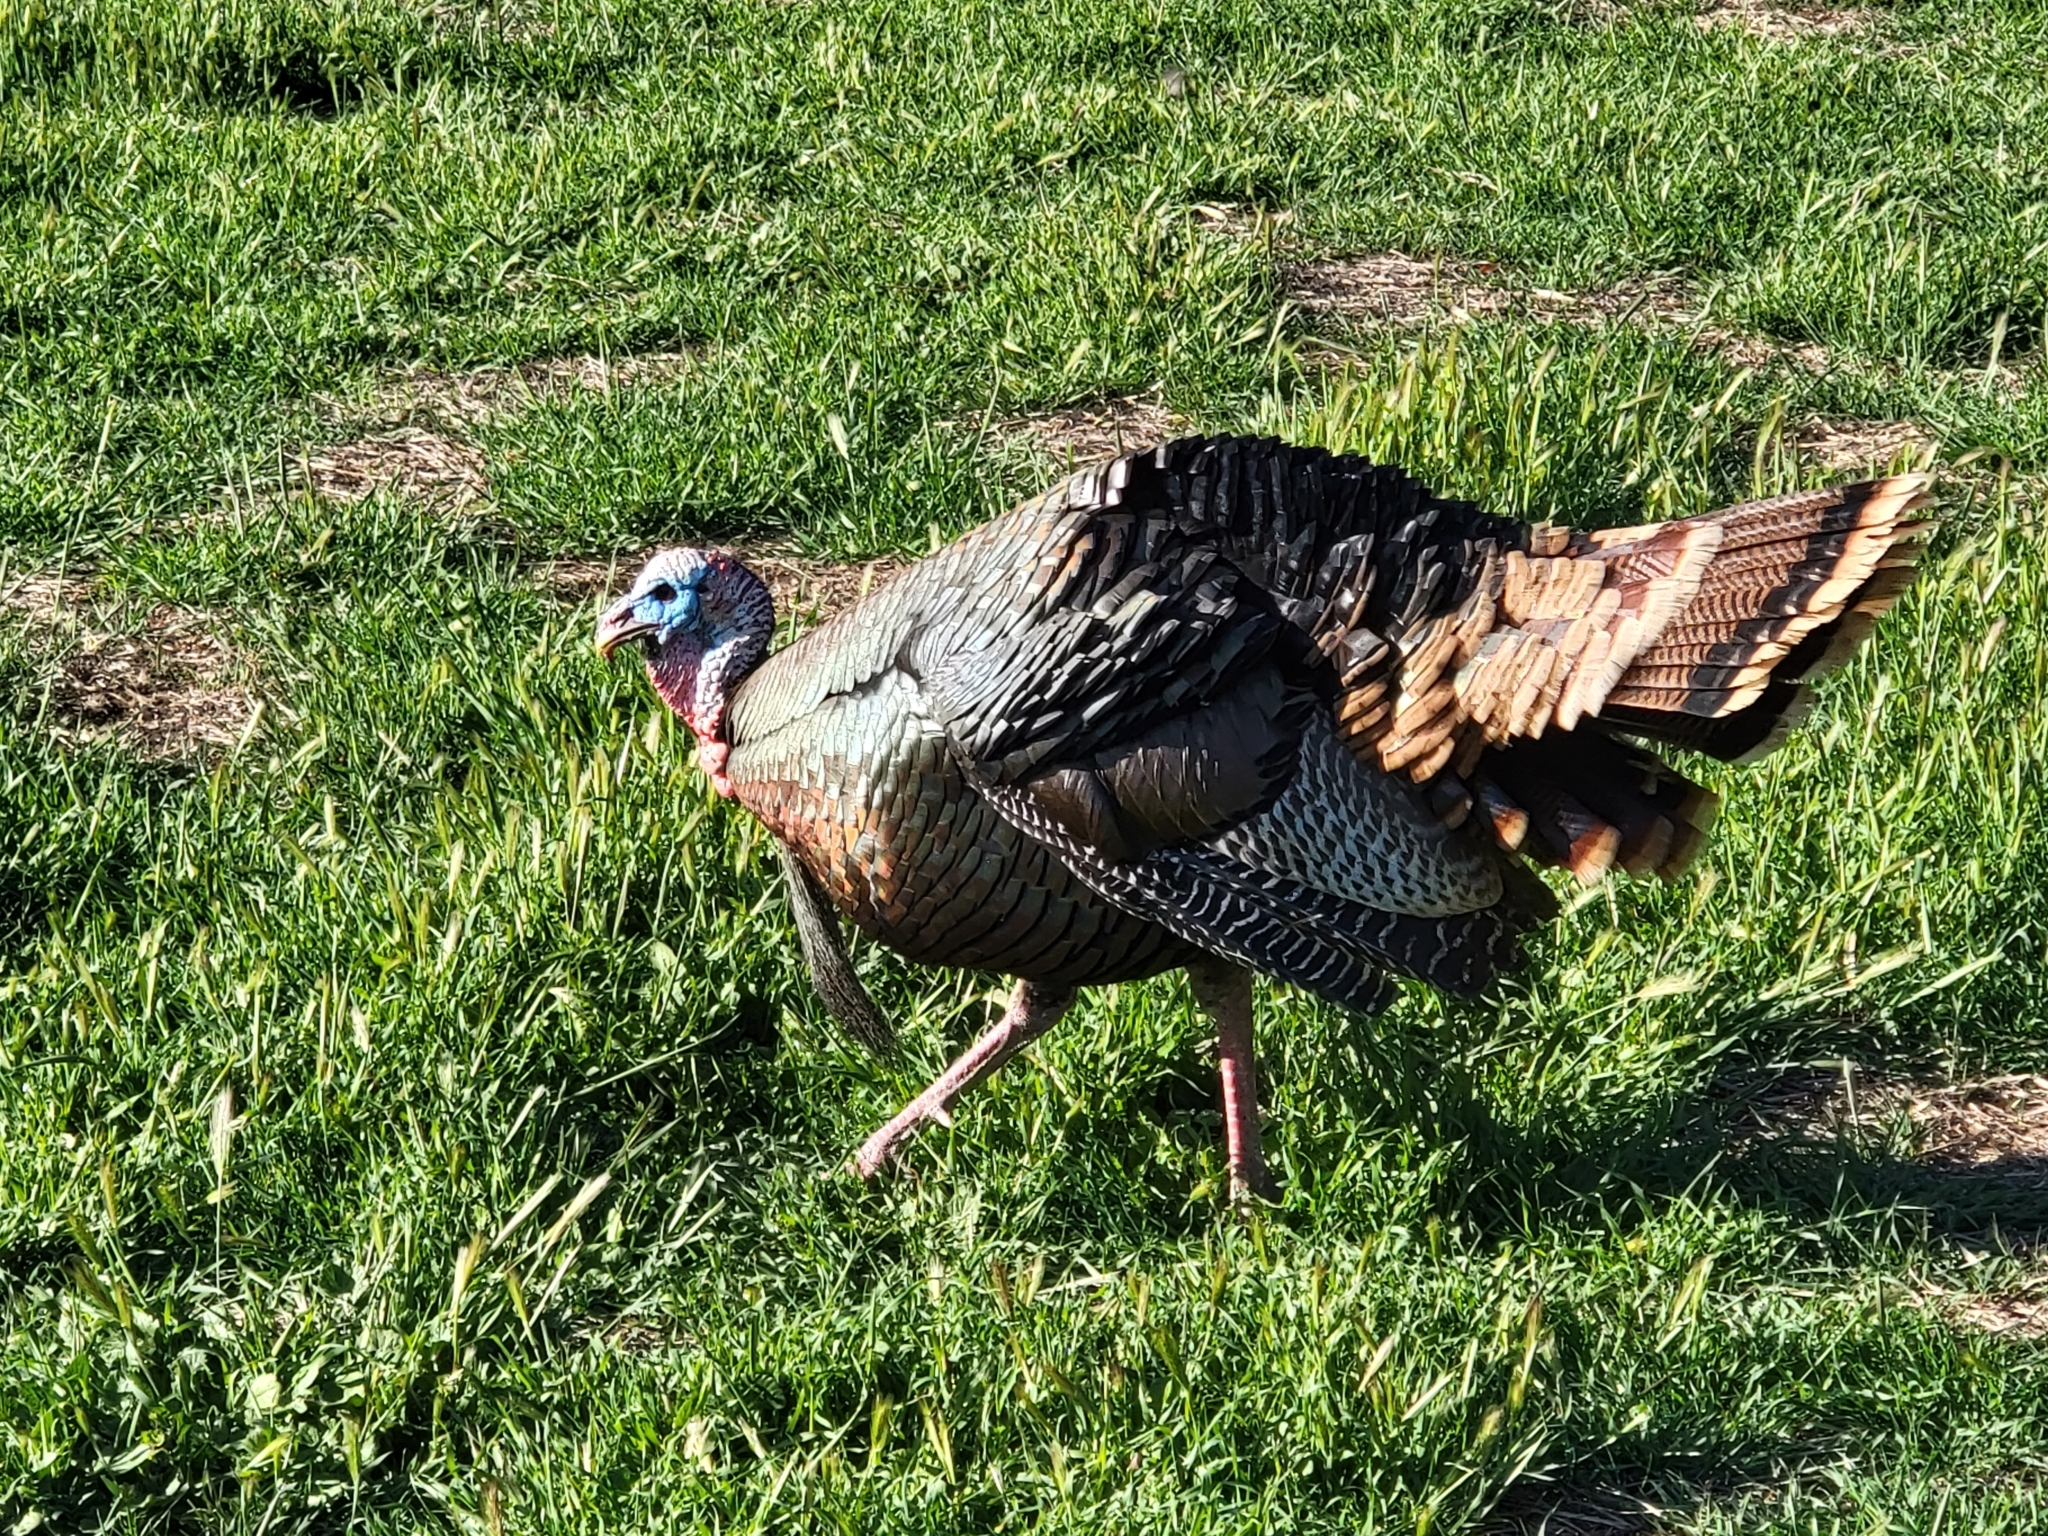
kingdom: Animalia
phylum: Chordata
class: Aves
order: Galliformes
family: Phasianidae
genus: Meleagris
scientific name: Meleagris gallopavo
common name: Wild turkey
